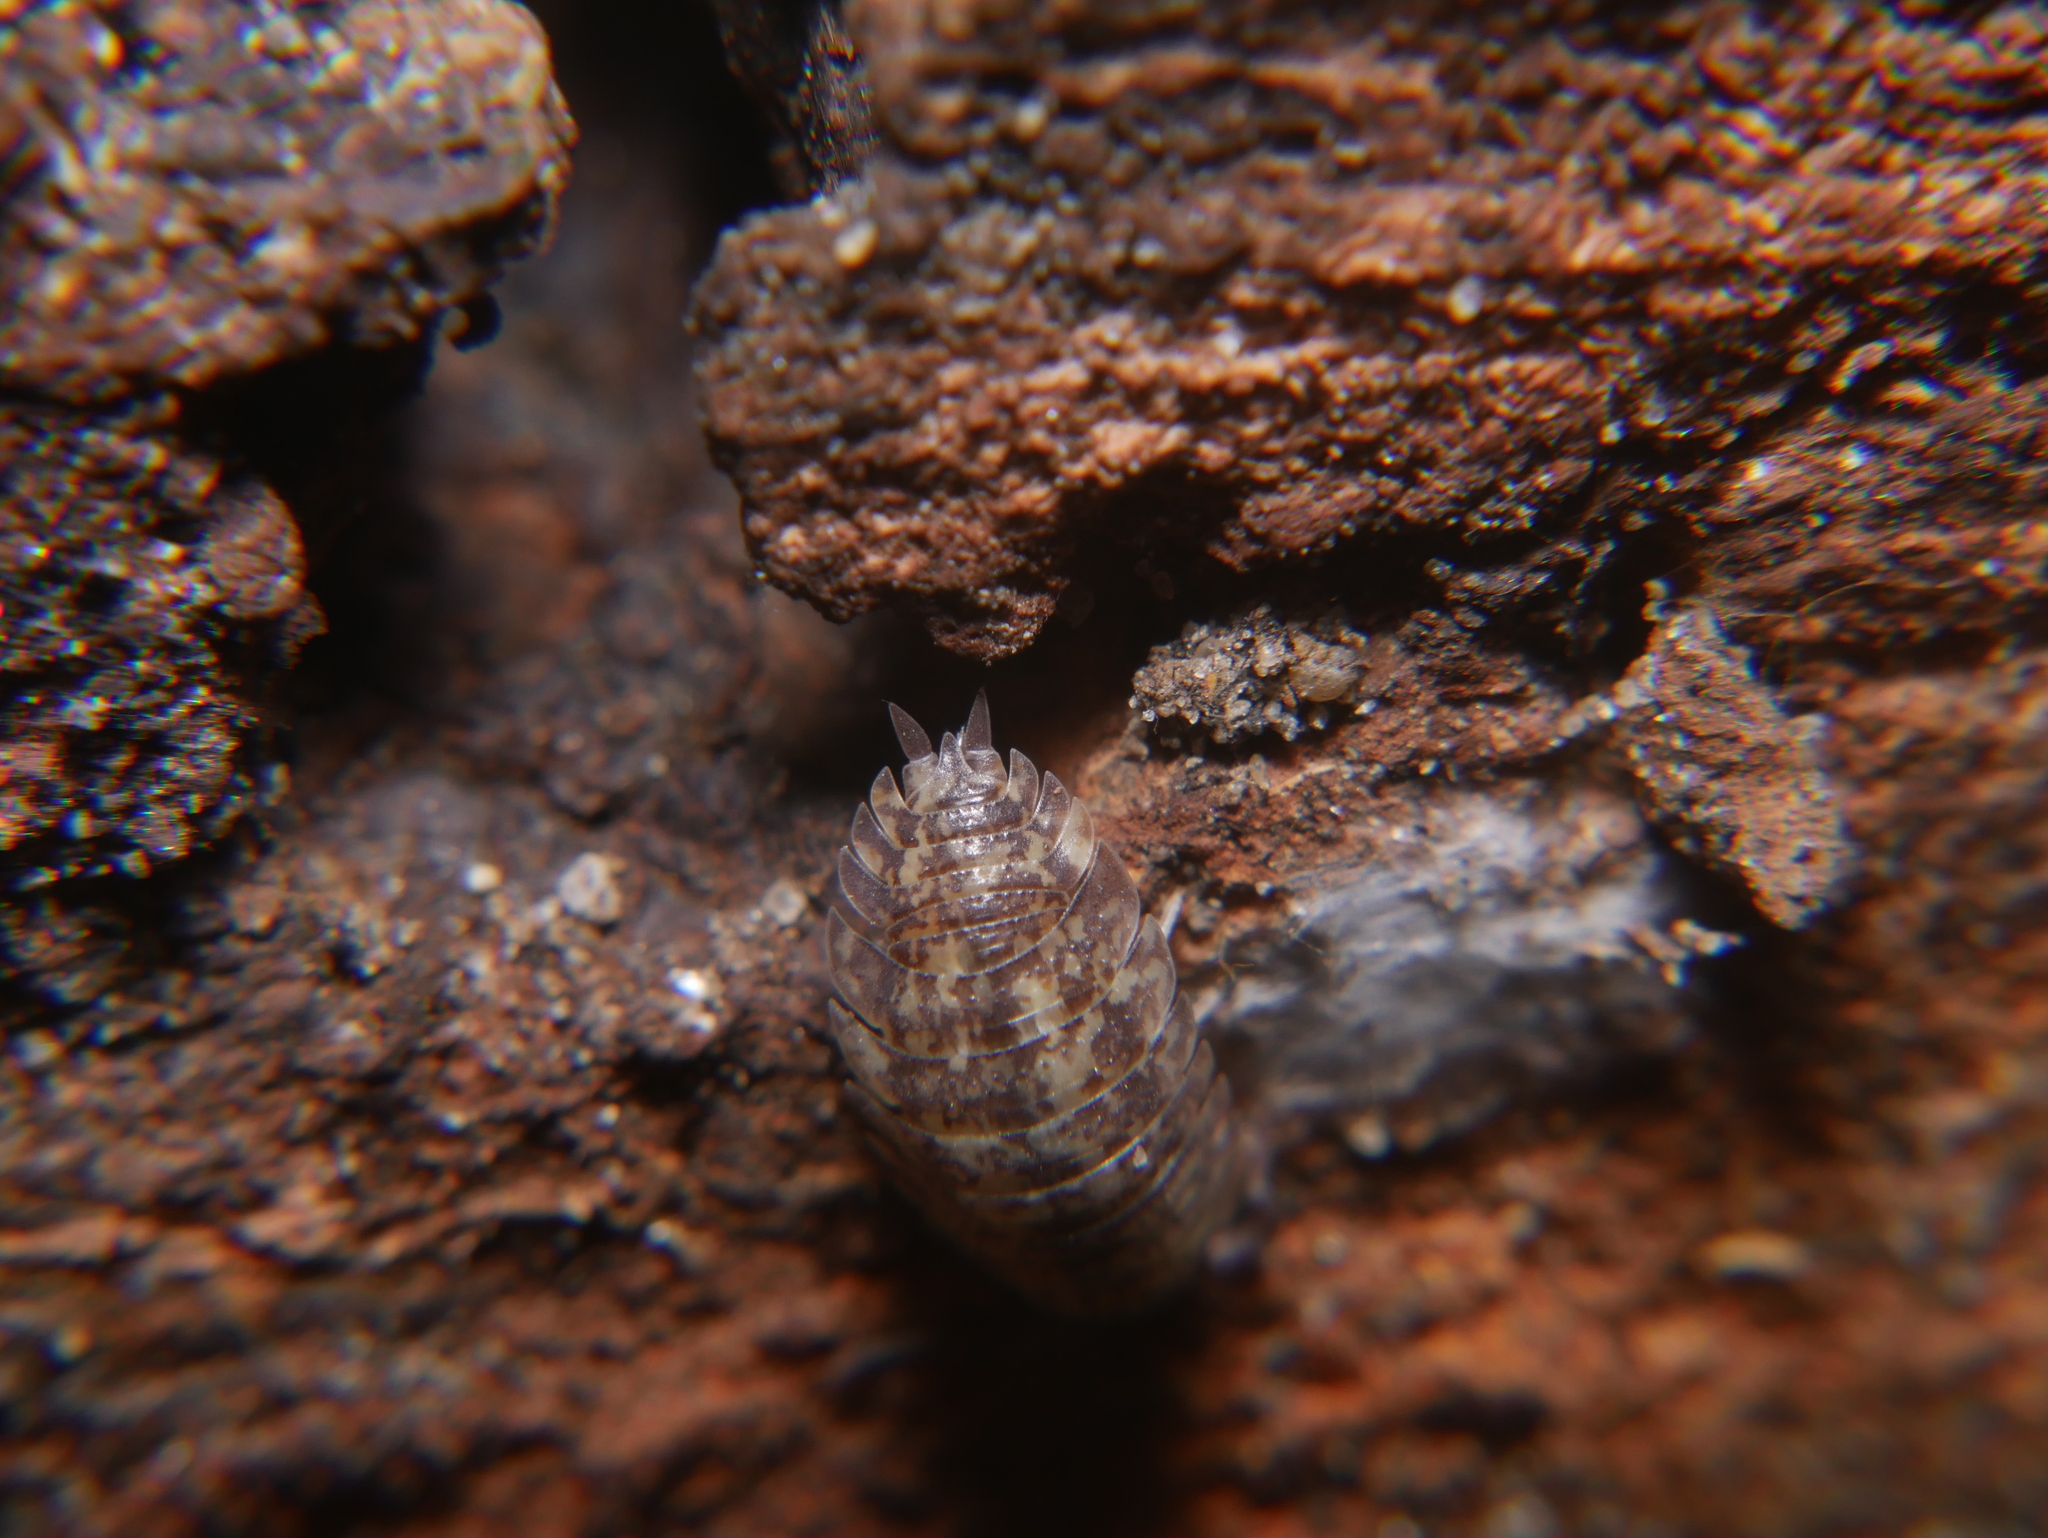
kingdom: Animalia
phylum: Arthropoda
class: Malacostraca
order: Isopoda
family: Porcellionidae
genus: Porcellio
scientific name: Porcellio scaber
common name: Common rough woodlouse
